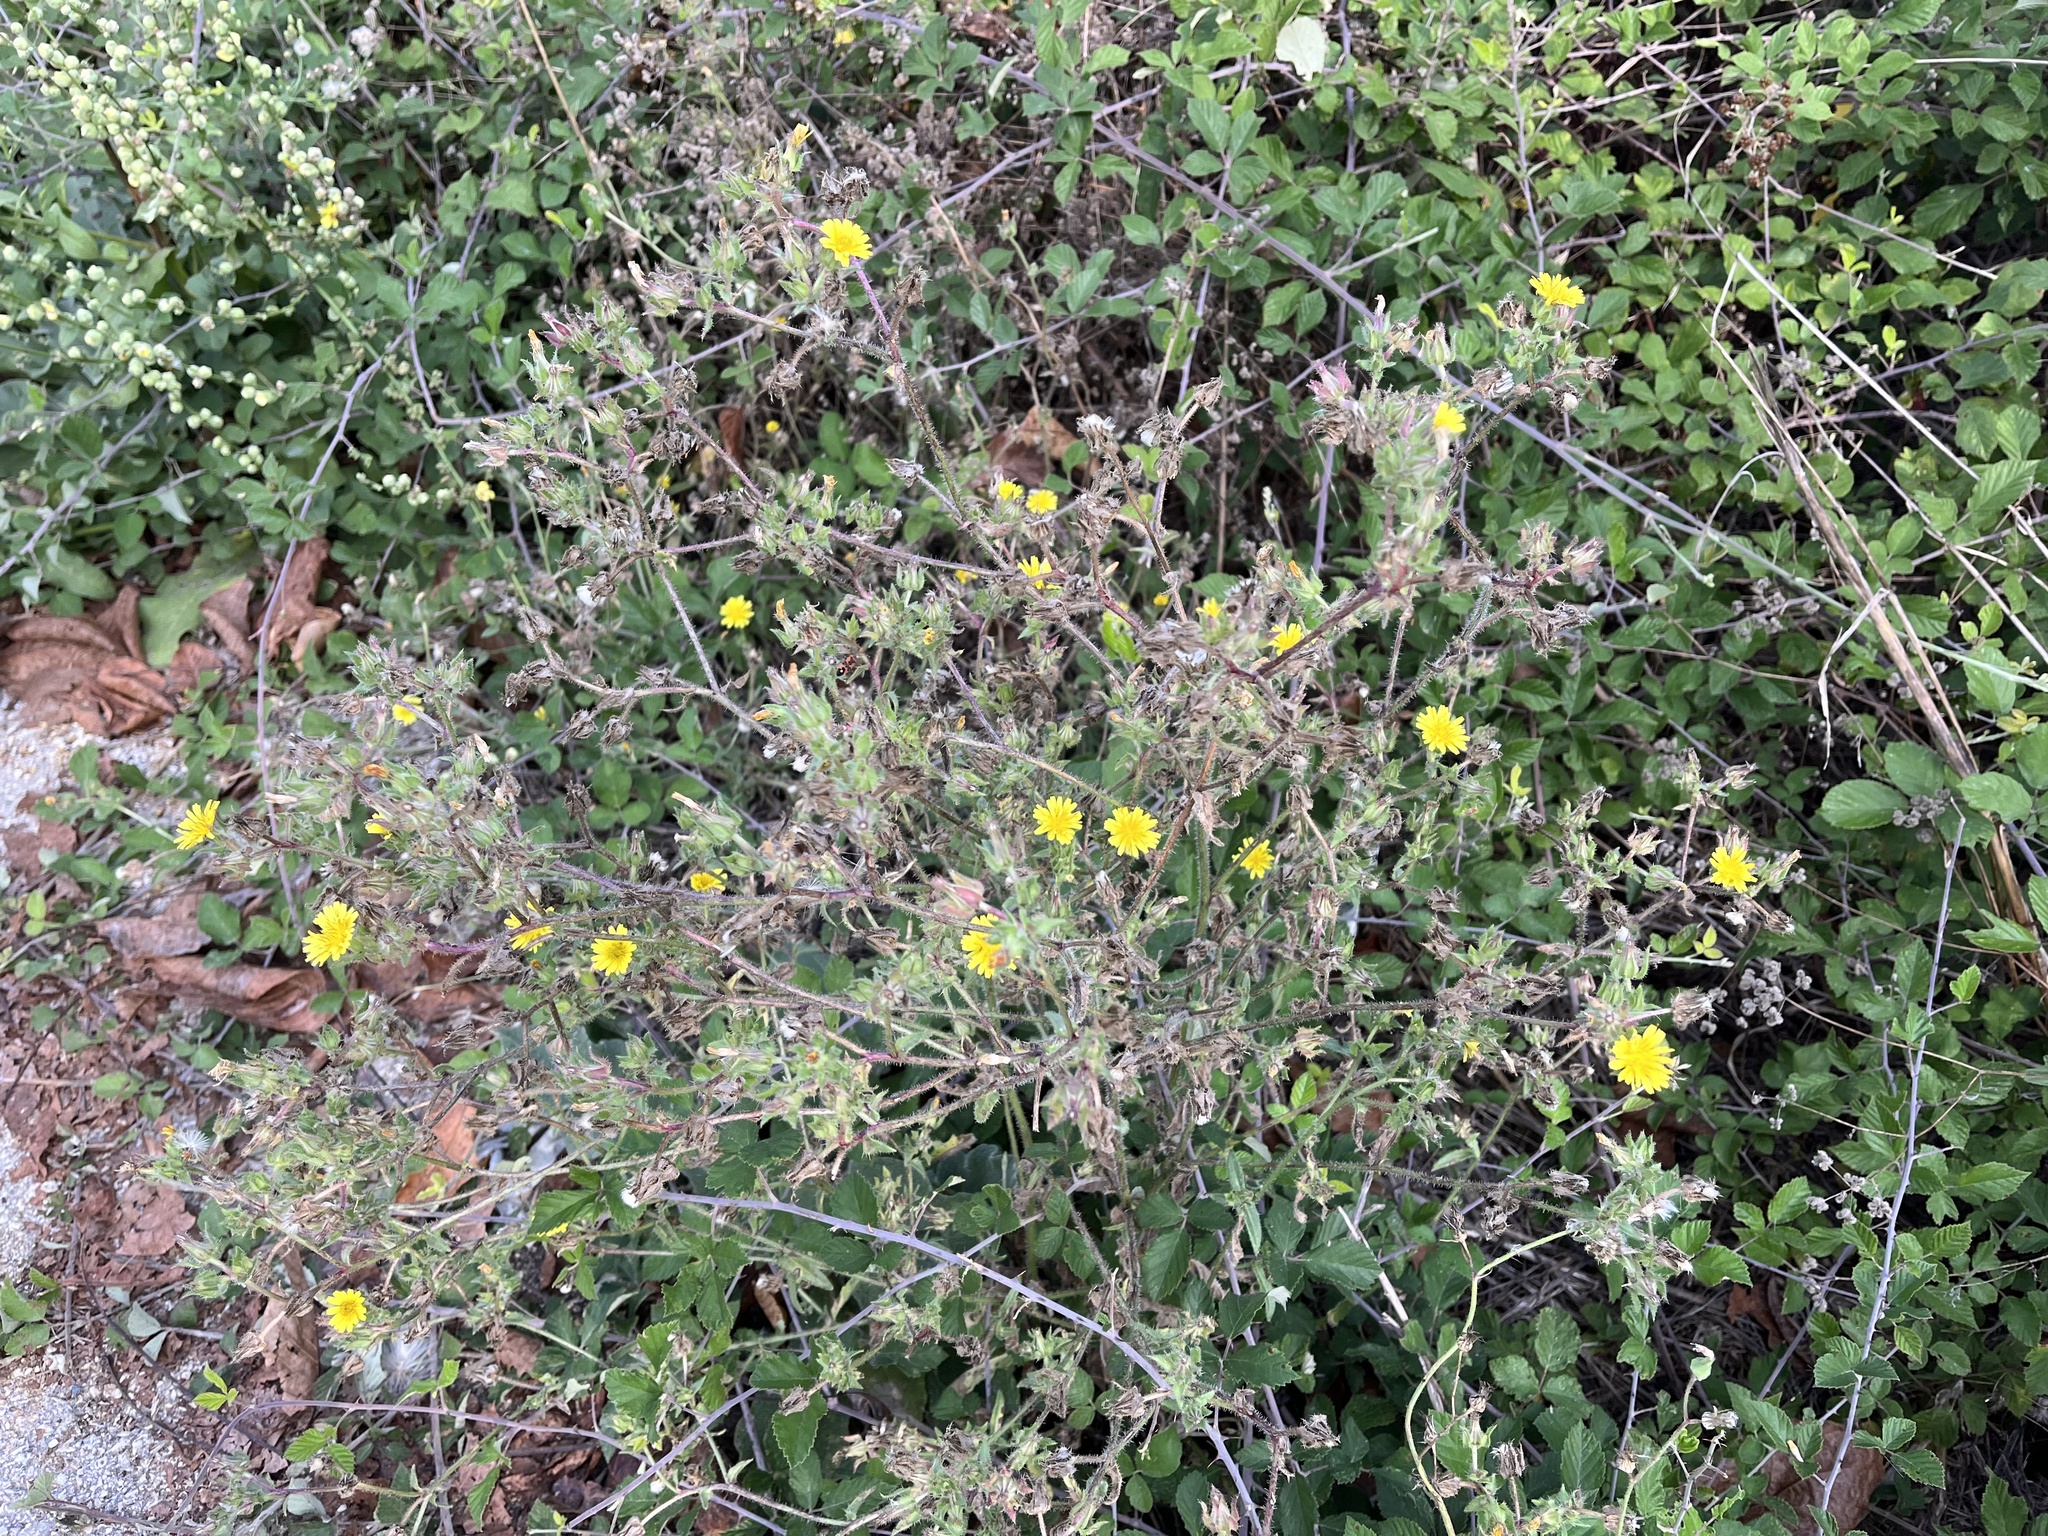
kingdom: Plantae
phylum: Tracheophyta
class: Magnoliopsida
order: Asterales
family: Asteraceae
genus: Helminthotheca
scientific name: Helminthotheca echioides
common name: Ox-tongue
